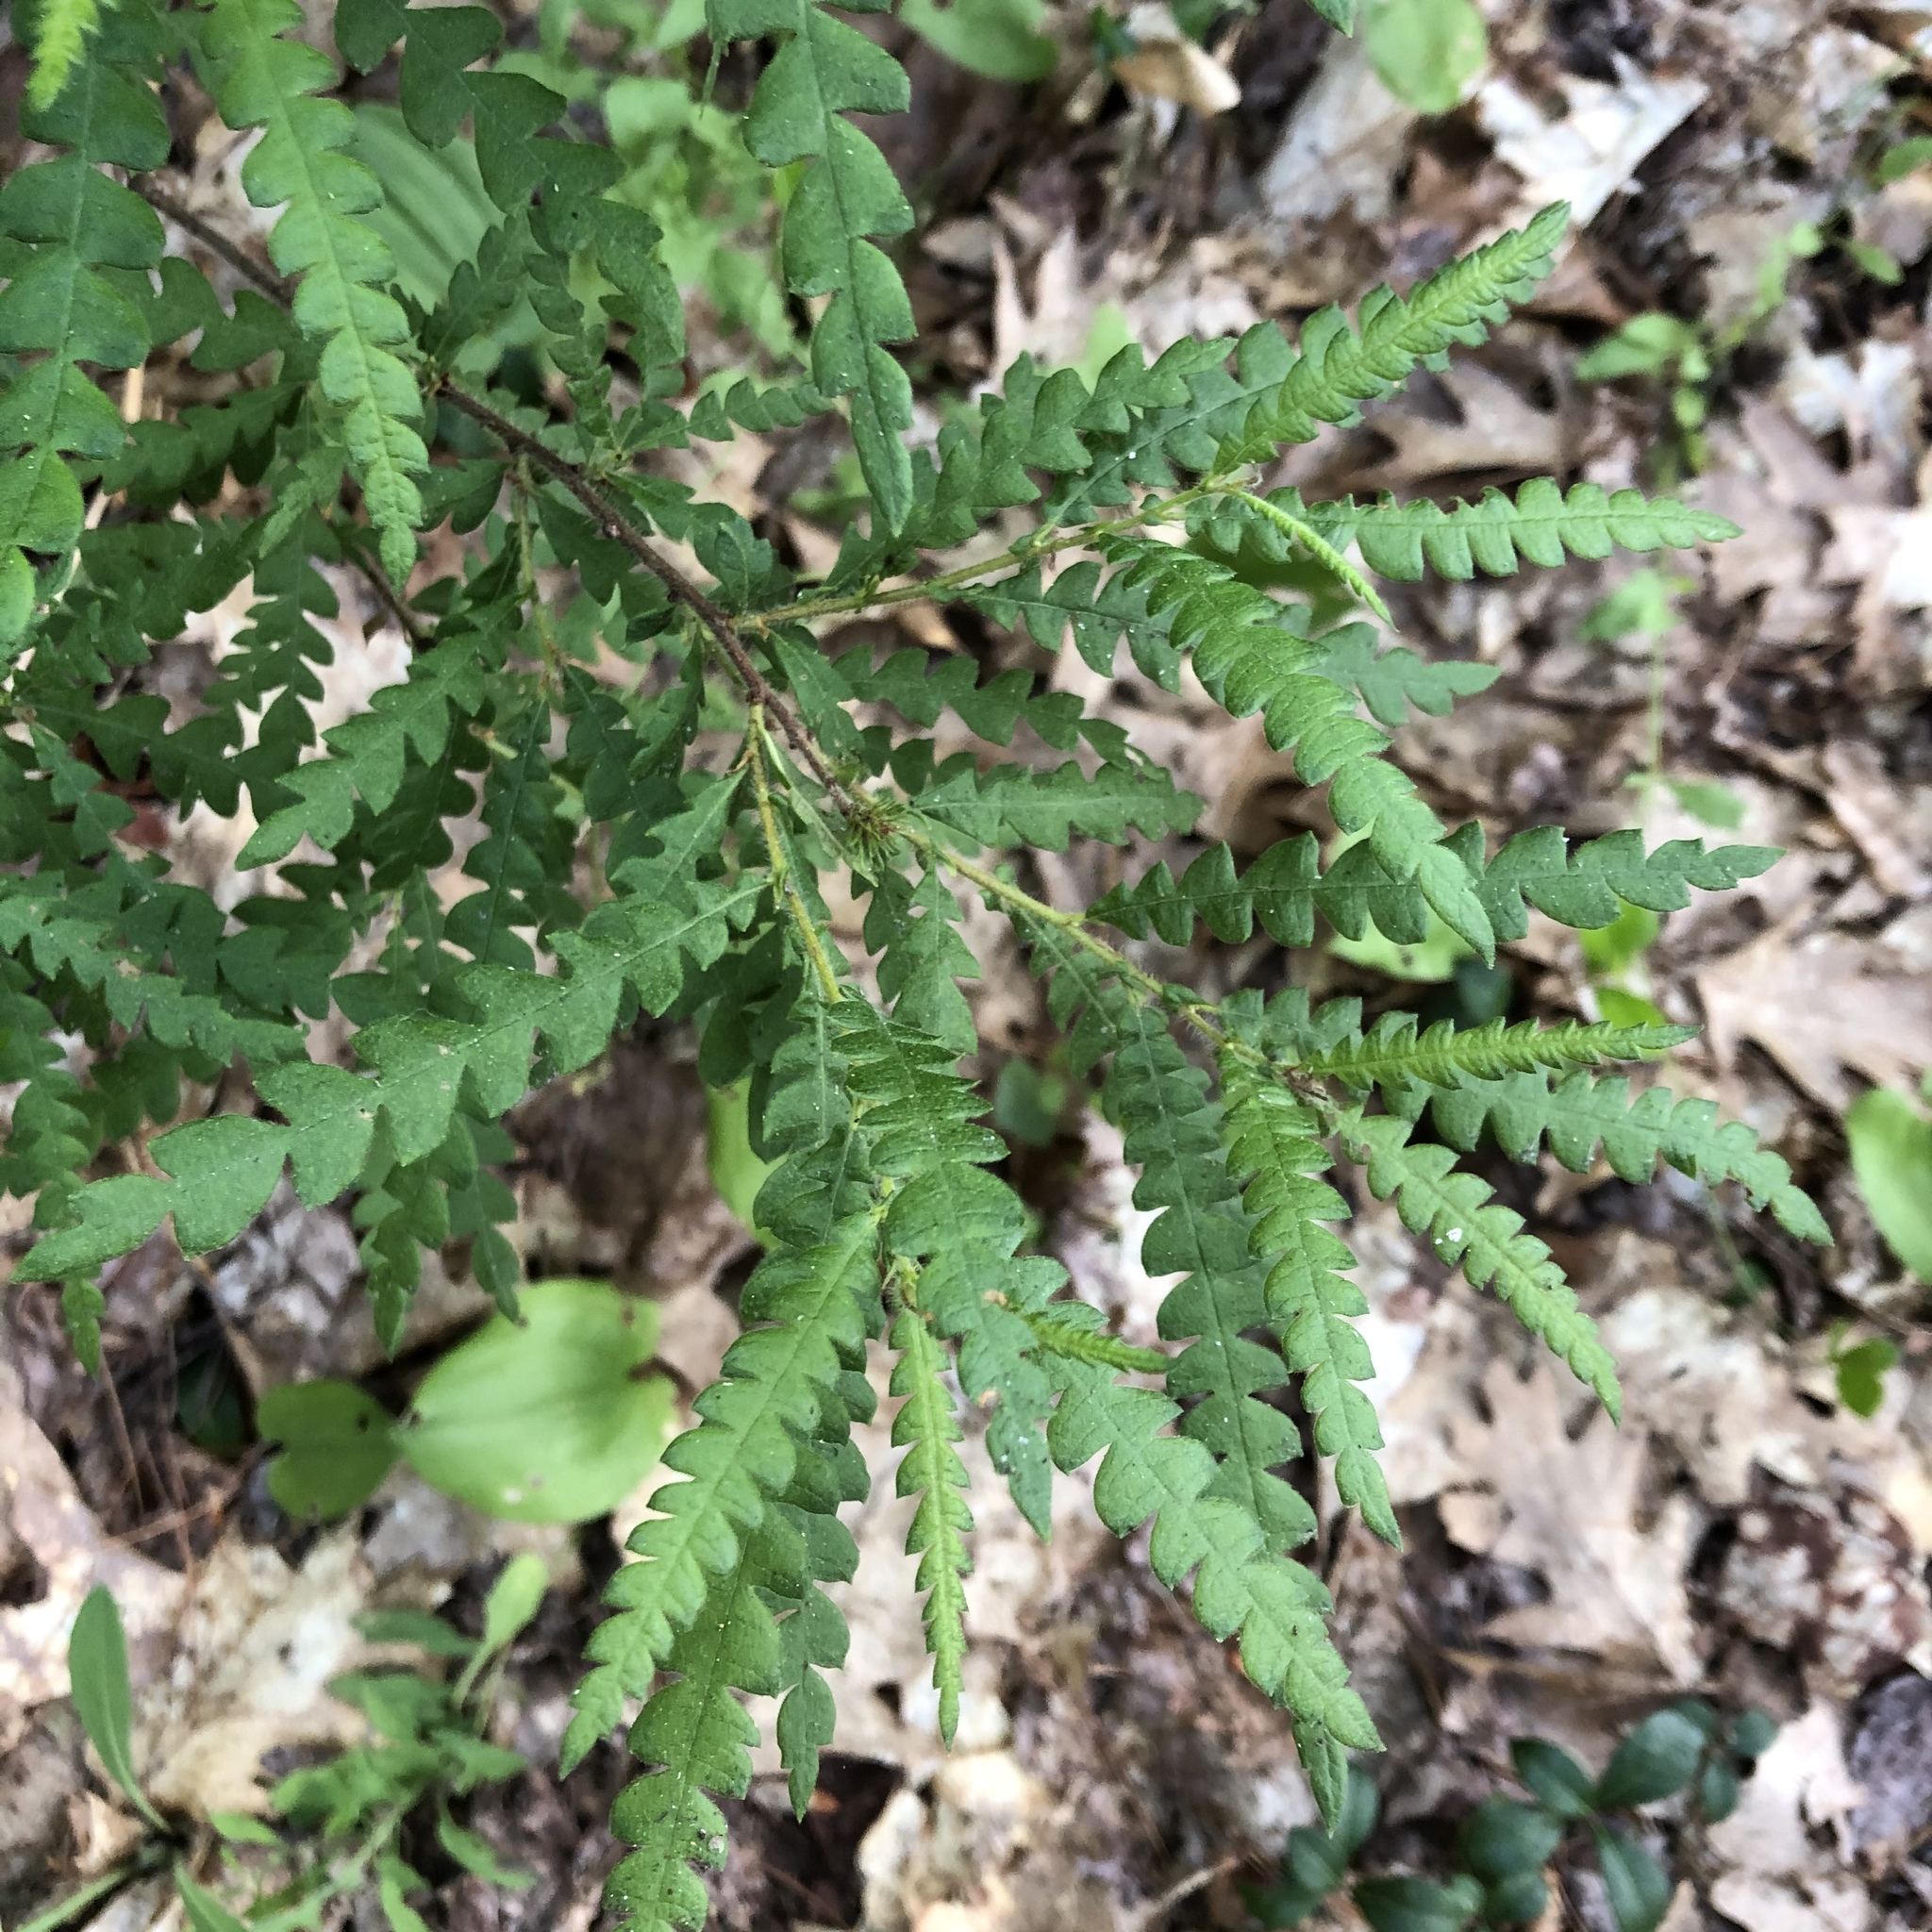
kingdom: Plantae
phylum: Tracheophyta
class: Magnoliopsida
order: Fagales
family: Myricaceae
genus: Comptonia
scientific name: Comptonia peregrina
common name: Sweet-fern
